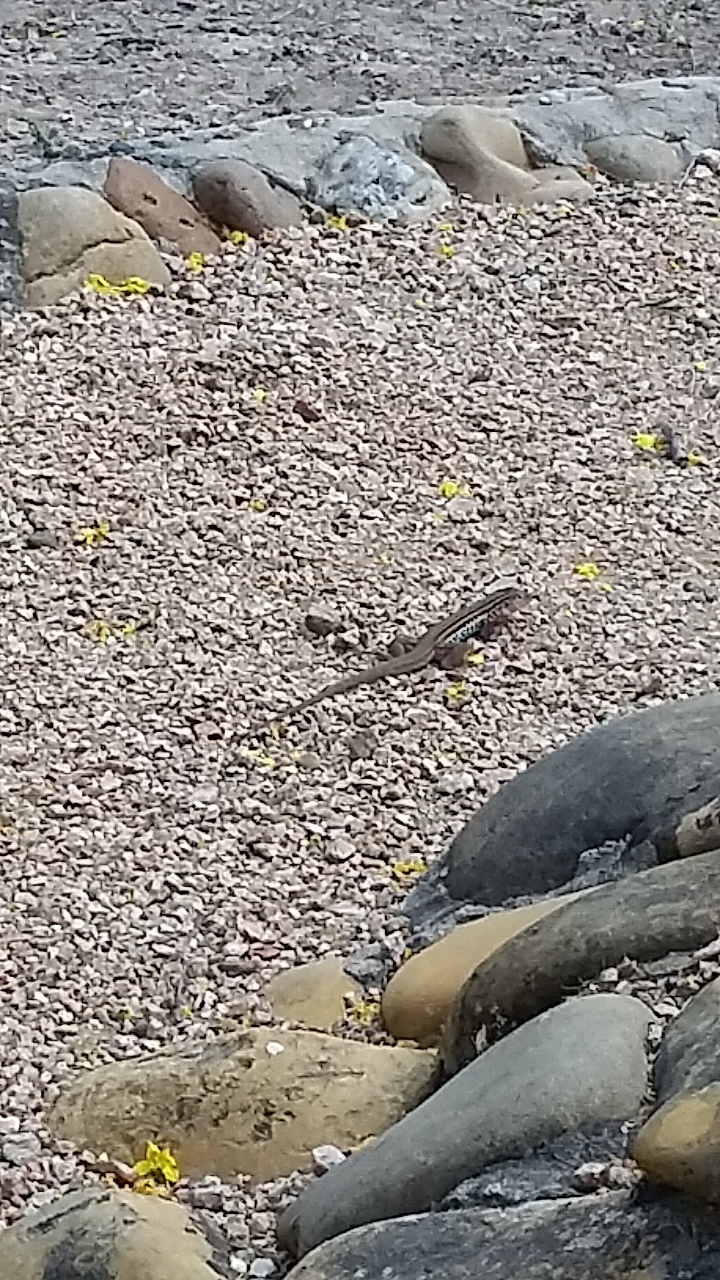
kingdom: Animalia
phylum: Chordata
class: Squamata
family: Teiidae
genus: Aspidoscelis
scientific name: Aspidoscelis gularis
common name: Eastern spotted whiptail
